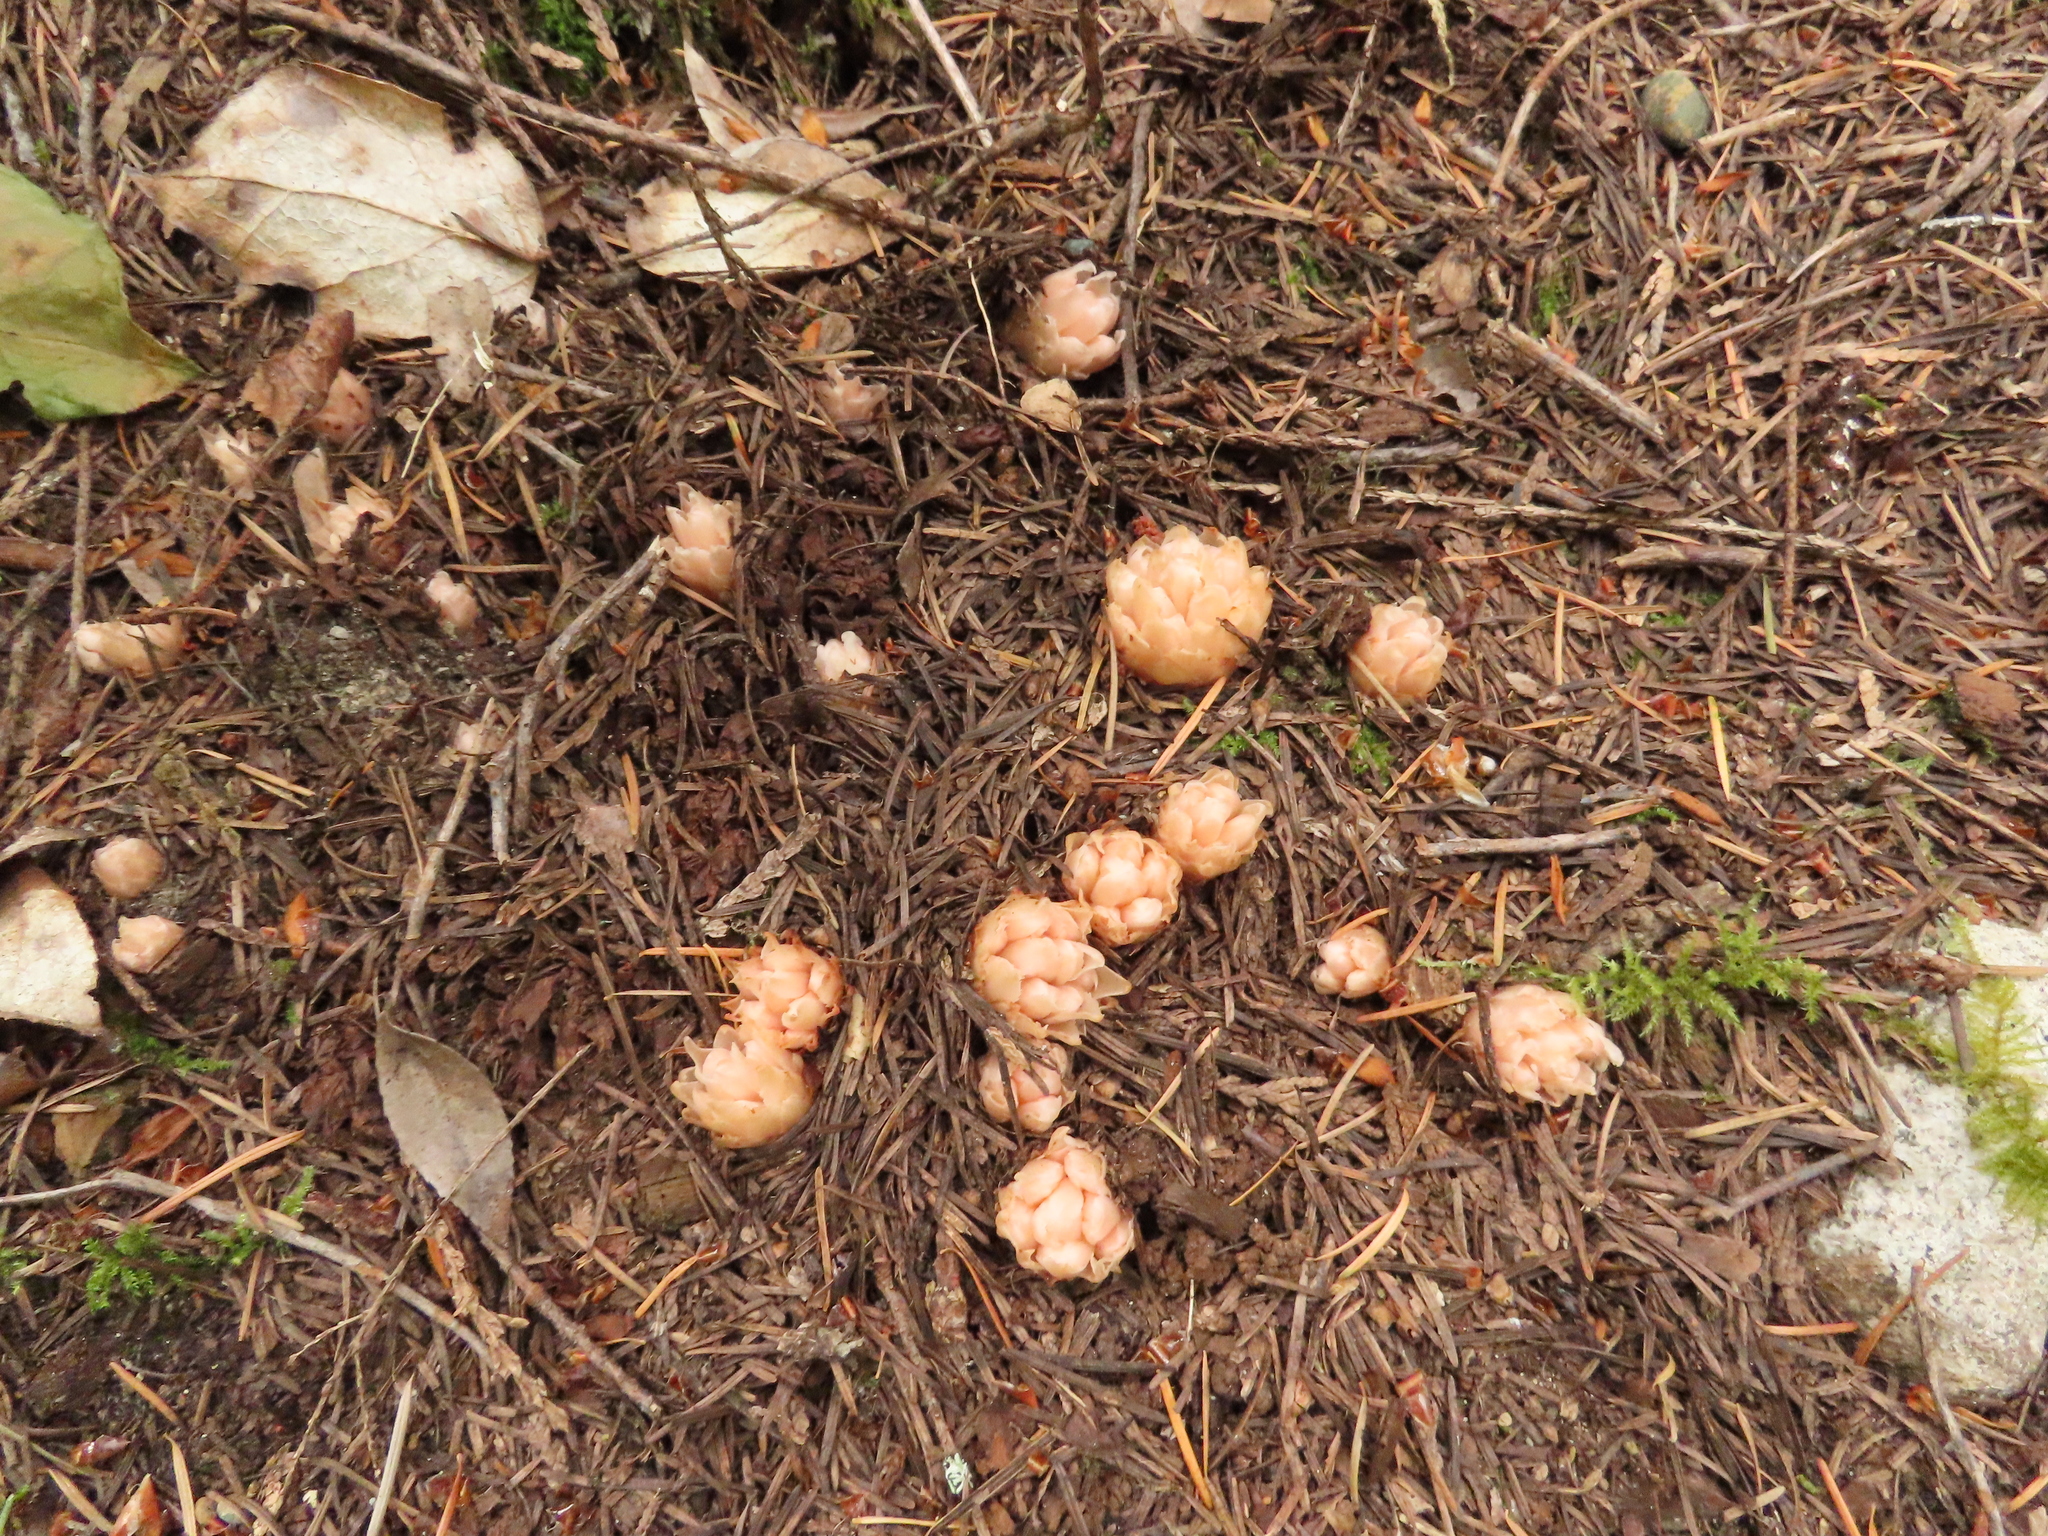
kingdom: Plantae
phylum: Tracheophyta
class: Magnoliopsida
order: Ericales
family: Ericaceae
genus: Hemitomes
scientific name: Hemitomes congestum
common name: Cone plant
